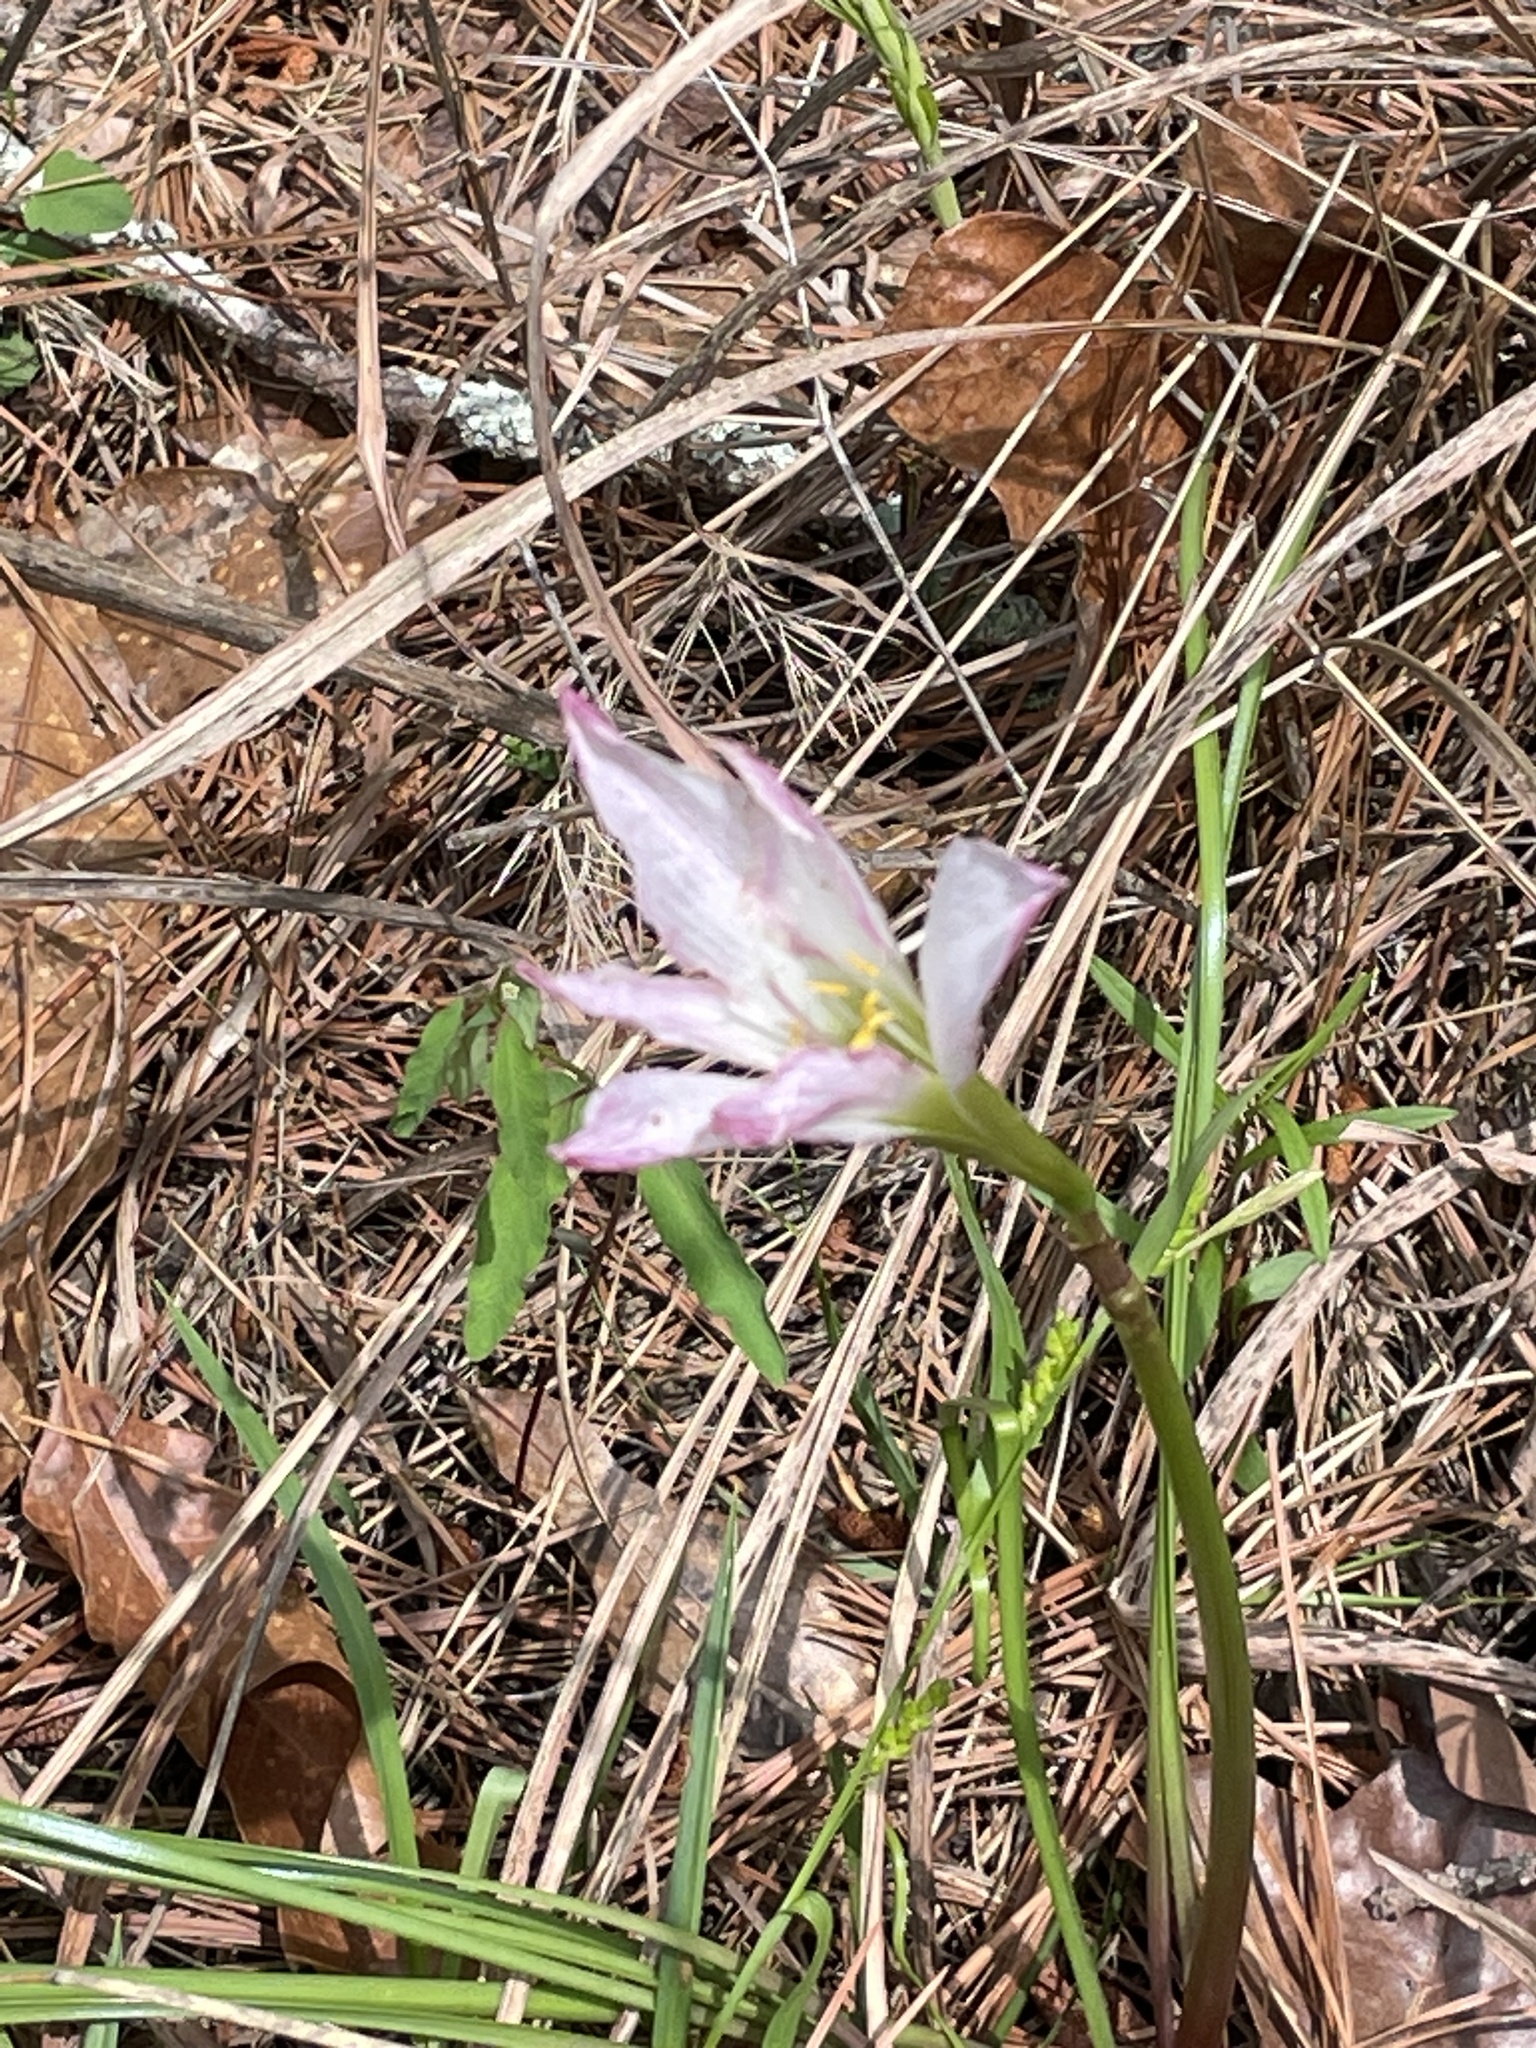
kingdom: Plantae
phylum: Tracheophyta
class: Liliopsida
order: Asparagales
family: Amaryllidaceae
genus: Zephyranthes
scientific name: Zephyranthes atamasco
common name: Atamasco lily
